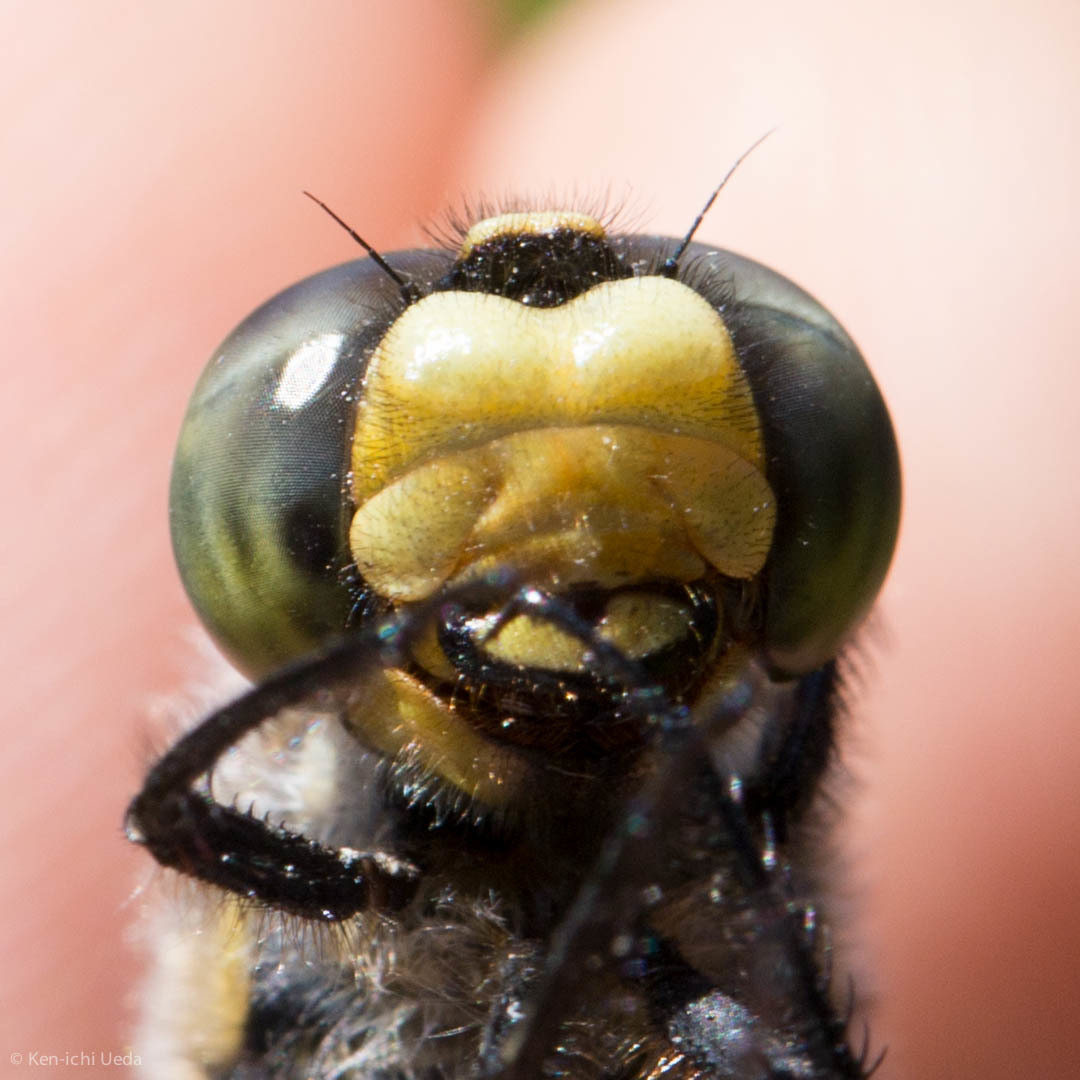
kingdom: Animalia
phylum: Arthropoda
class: Insecta
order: Odonata
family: Libellulidae
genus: Libellula
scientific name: Libellula quadrimaculata
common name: Four-spotted chaser
